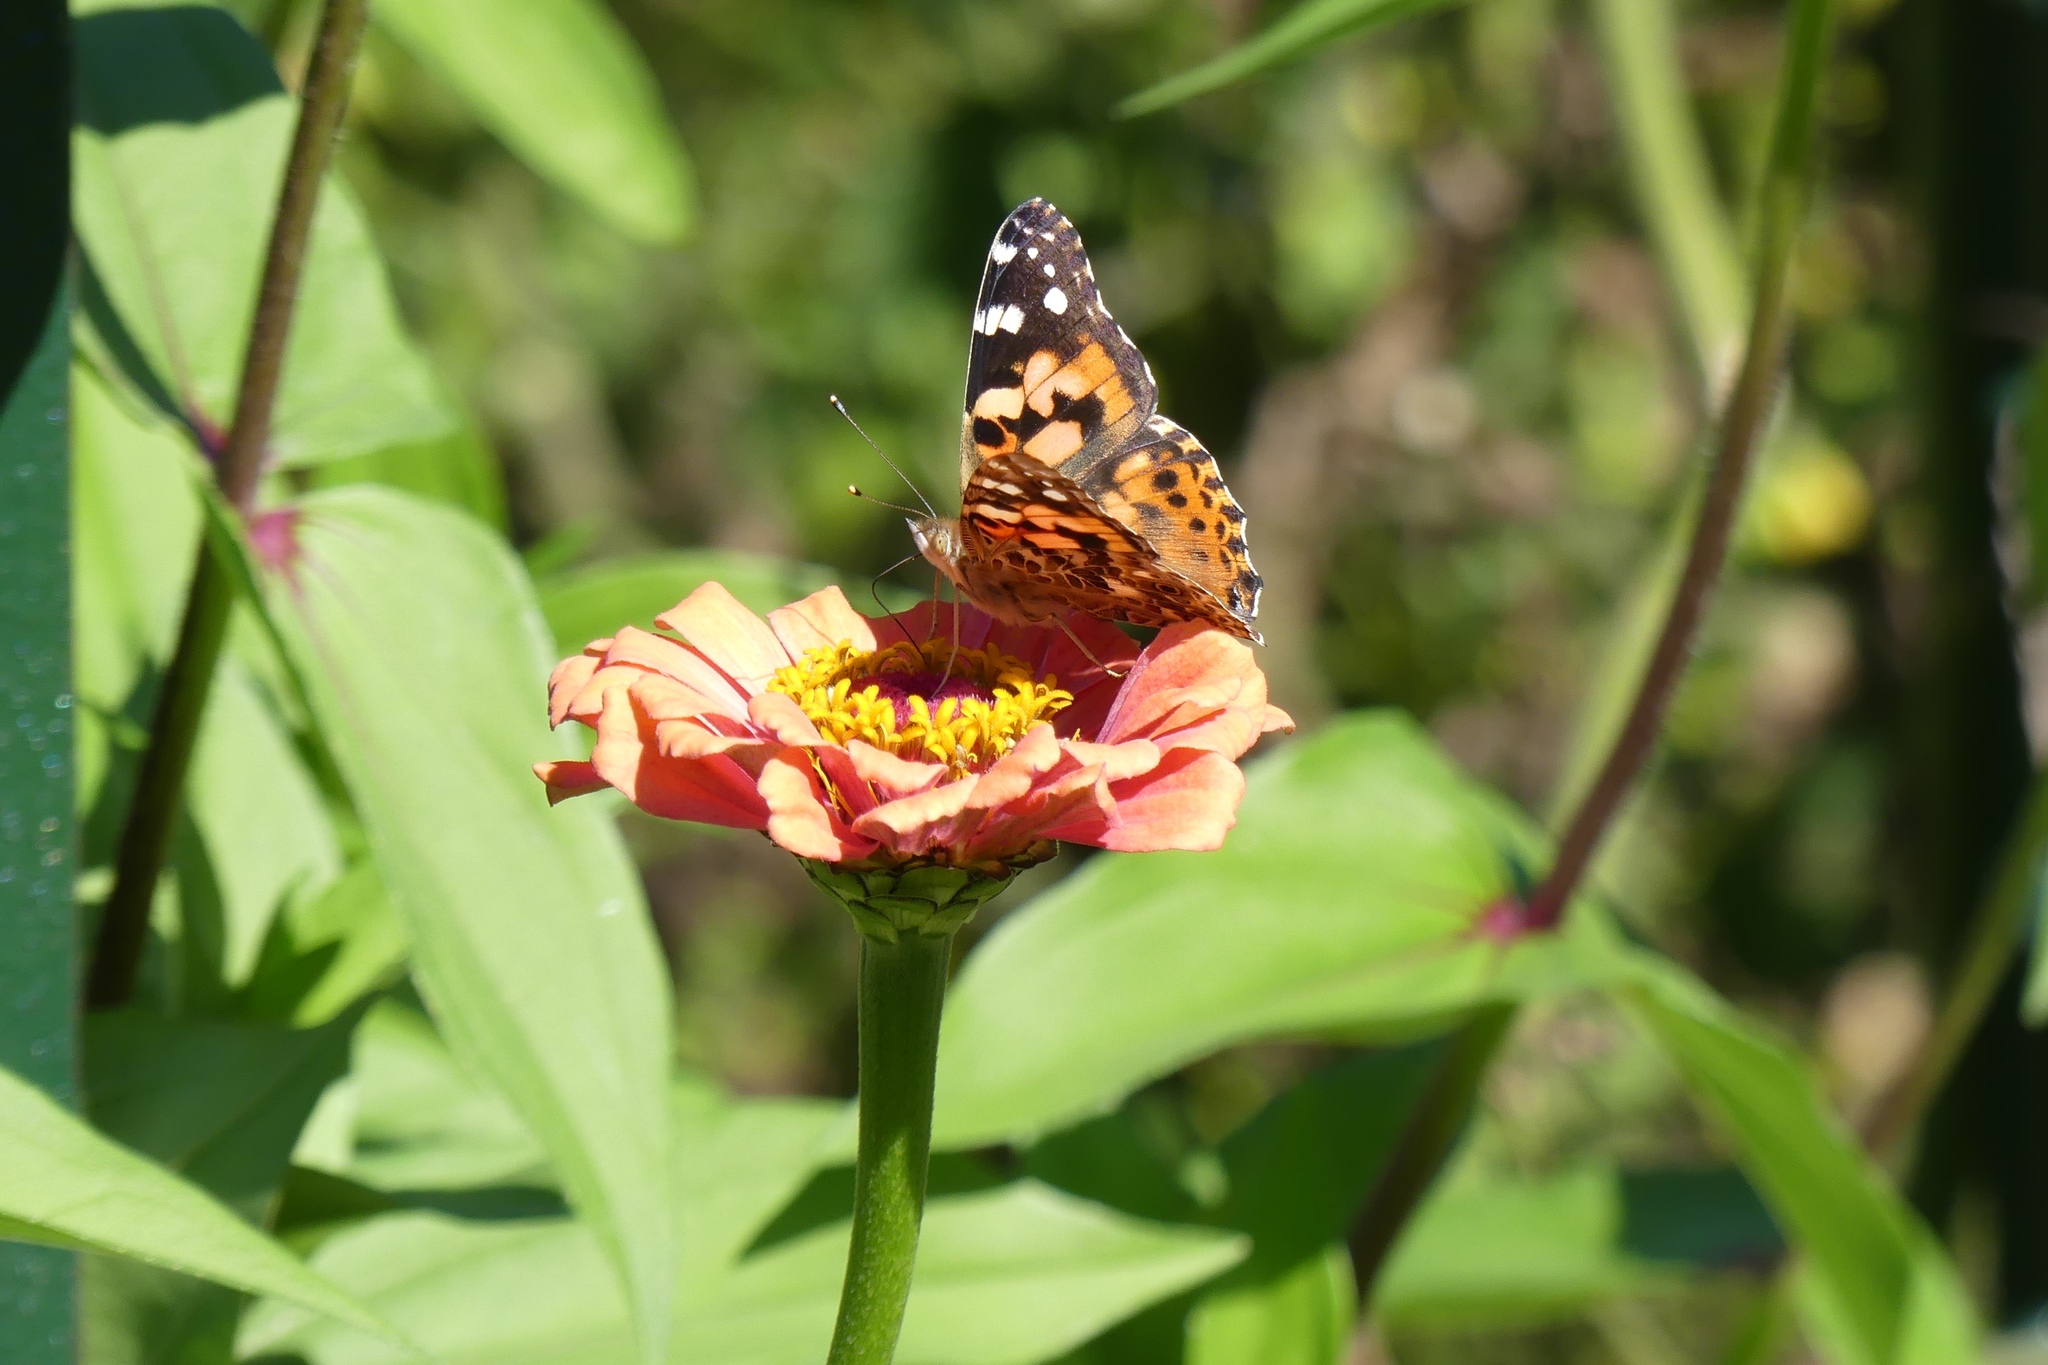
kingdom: Animalia
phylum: Arthropoda
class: Insecta
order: Lepidoptera
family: Nymphalidae
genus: Vanessa
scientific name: Vanessa cardui
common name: Painted lady
